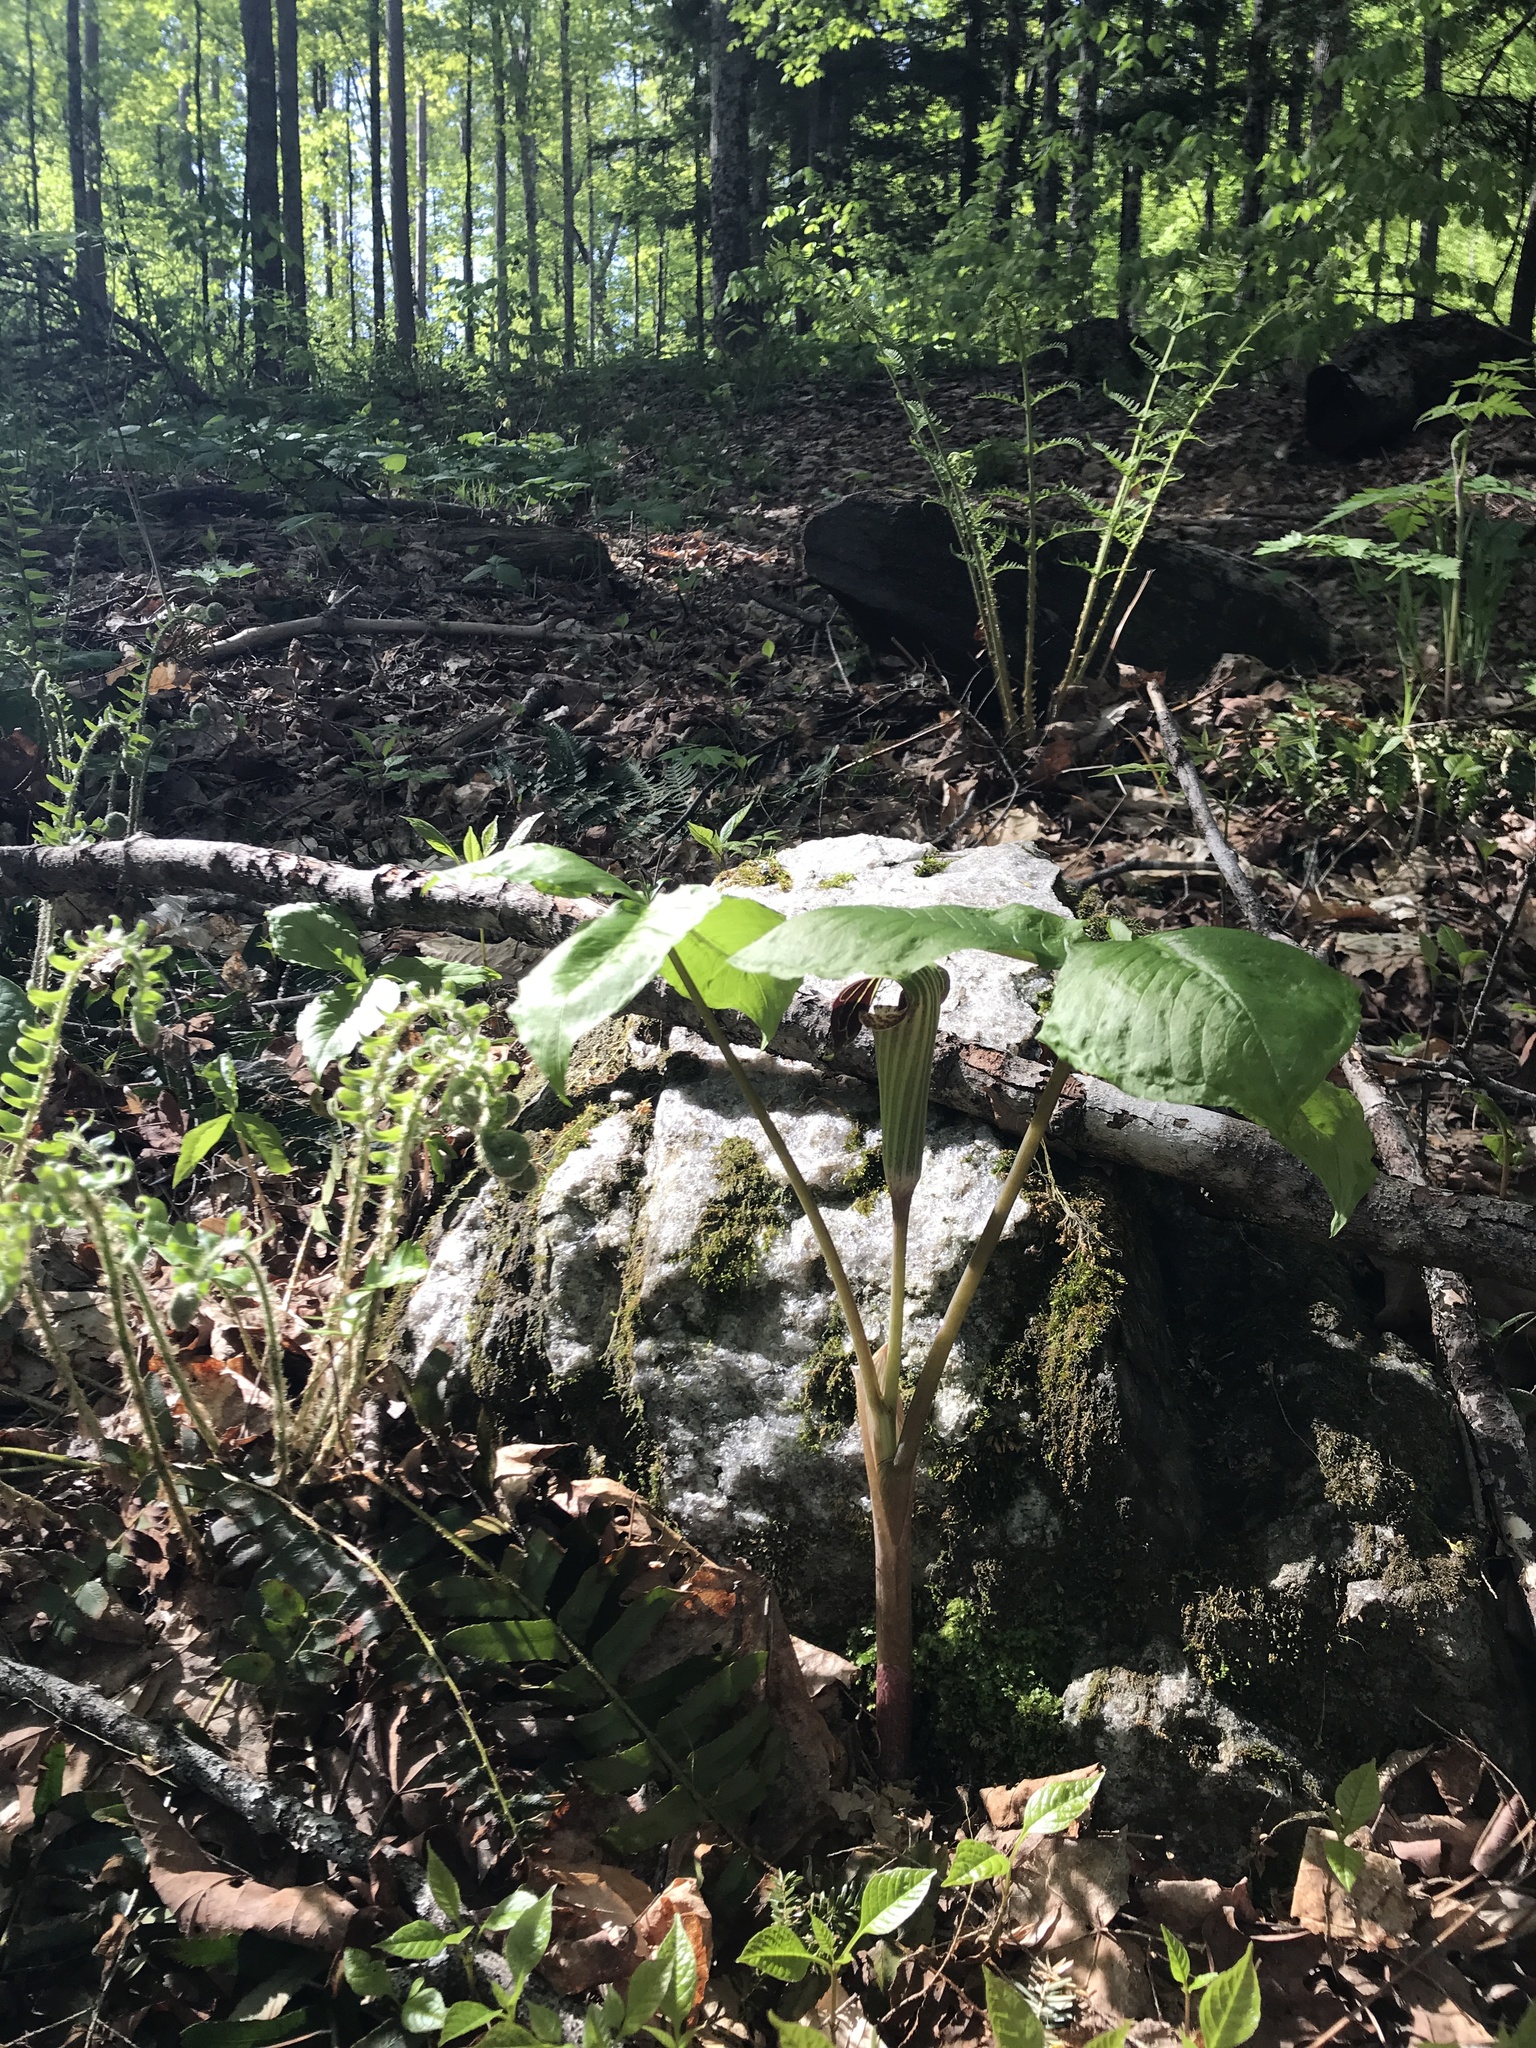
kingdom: Plantae
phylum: Tracheophyta
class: Liliopsida
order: Alismatales
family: Araceae
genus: Arisaema
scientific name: Arisaema triphyllum
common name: Jack-in-the-pulpit
